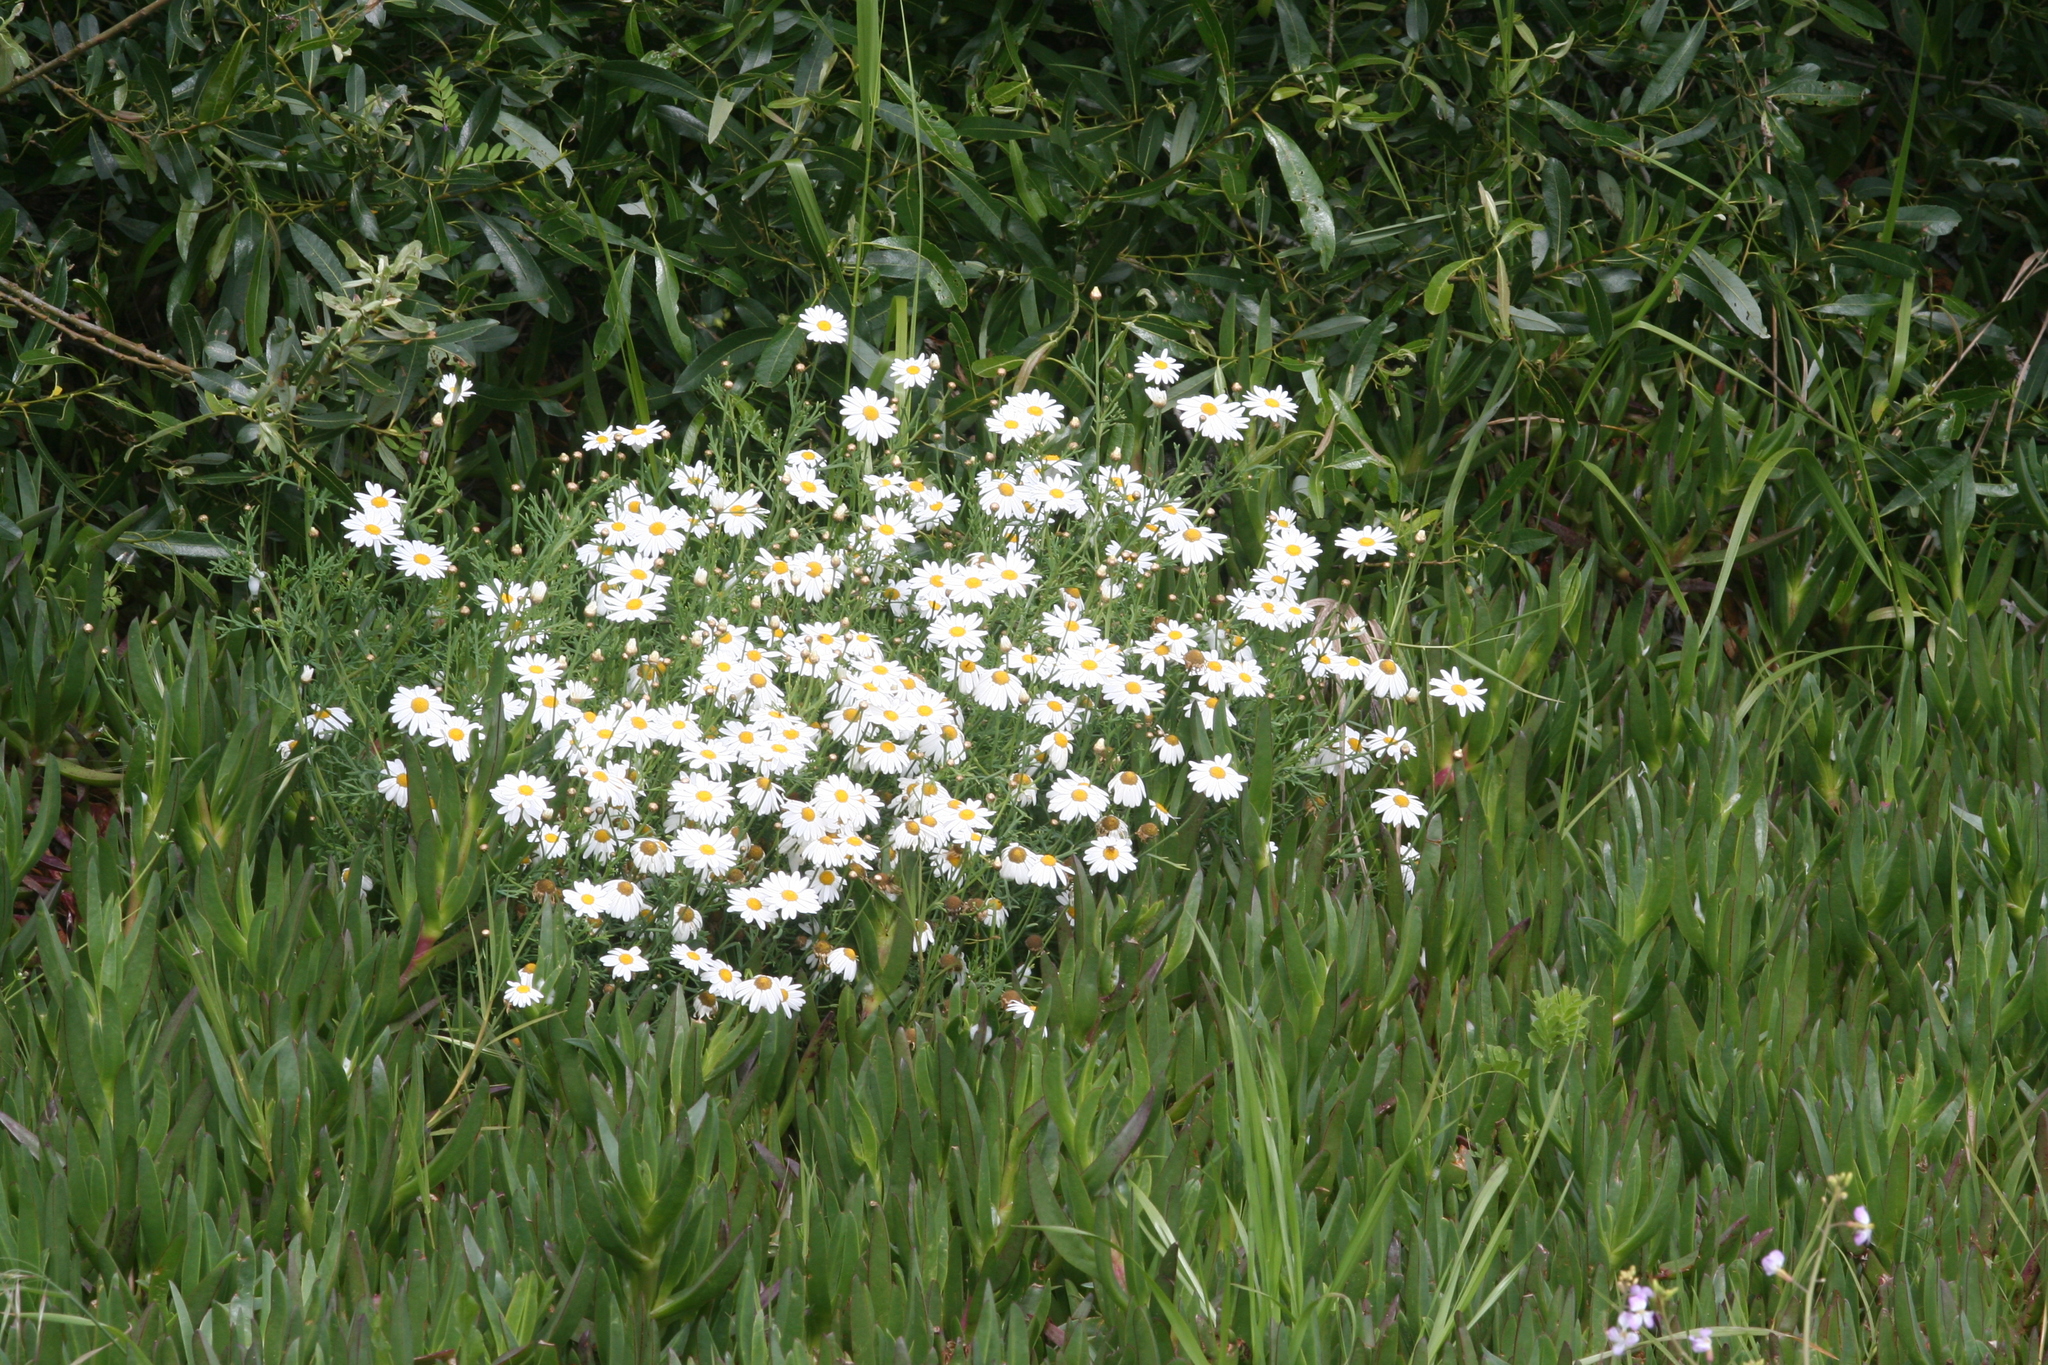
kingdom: Plantae
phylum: Tracheophyta
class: Magnoliopsida
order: Asterales
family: Asteraceae
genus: Argyranthemum
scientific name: Argyranthemum foeniculaceum
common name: Canary island marguerite
